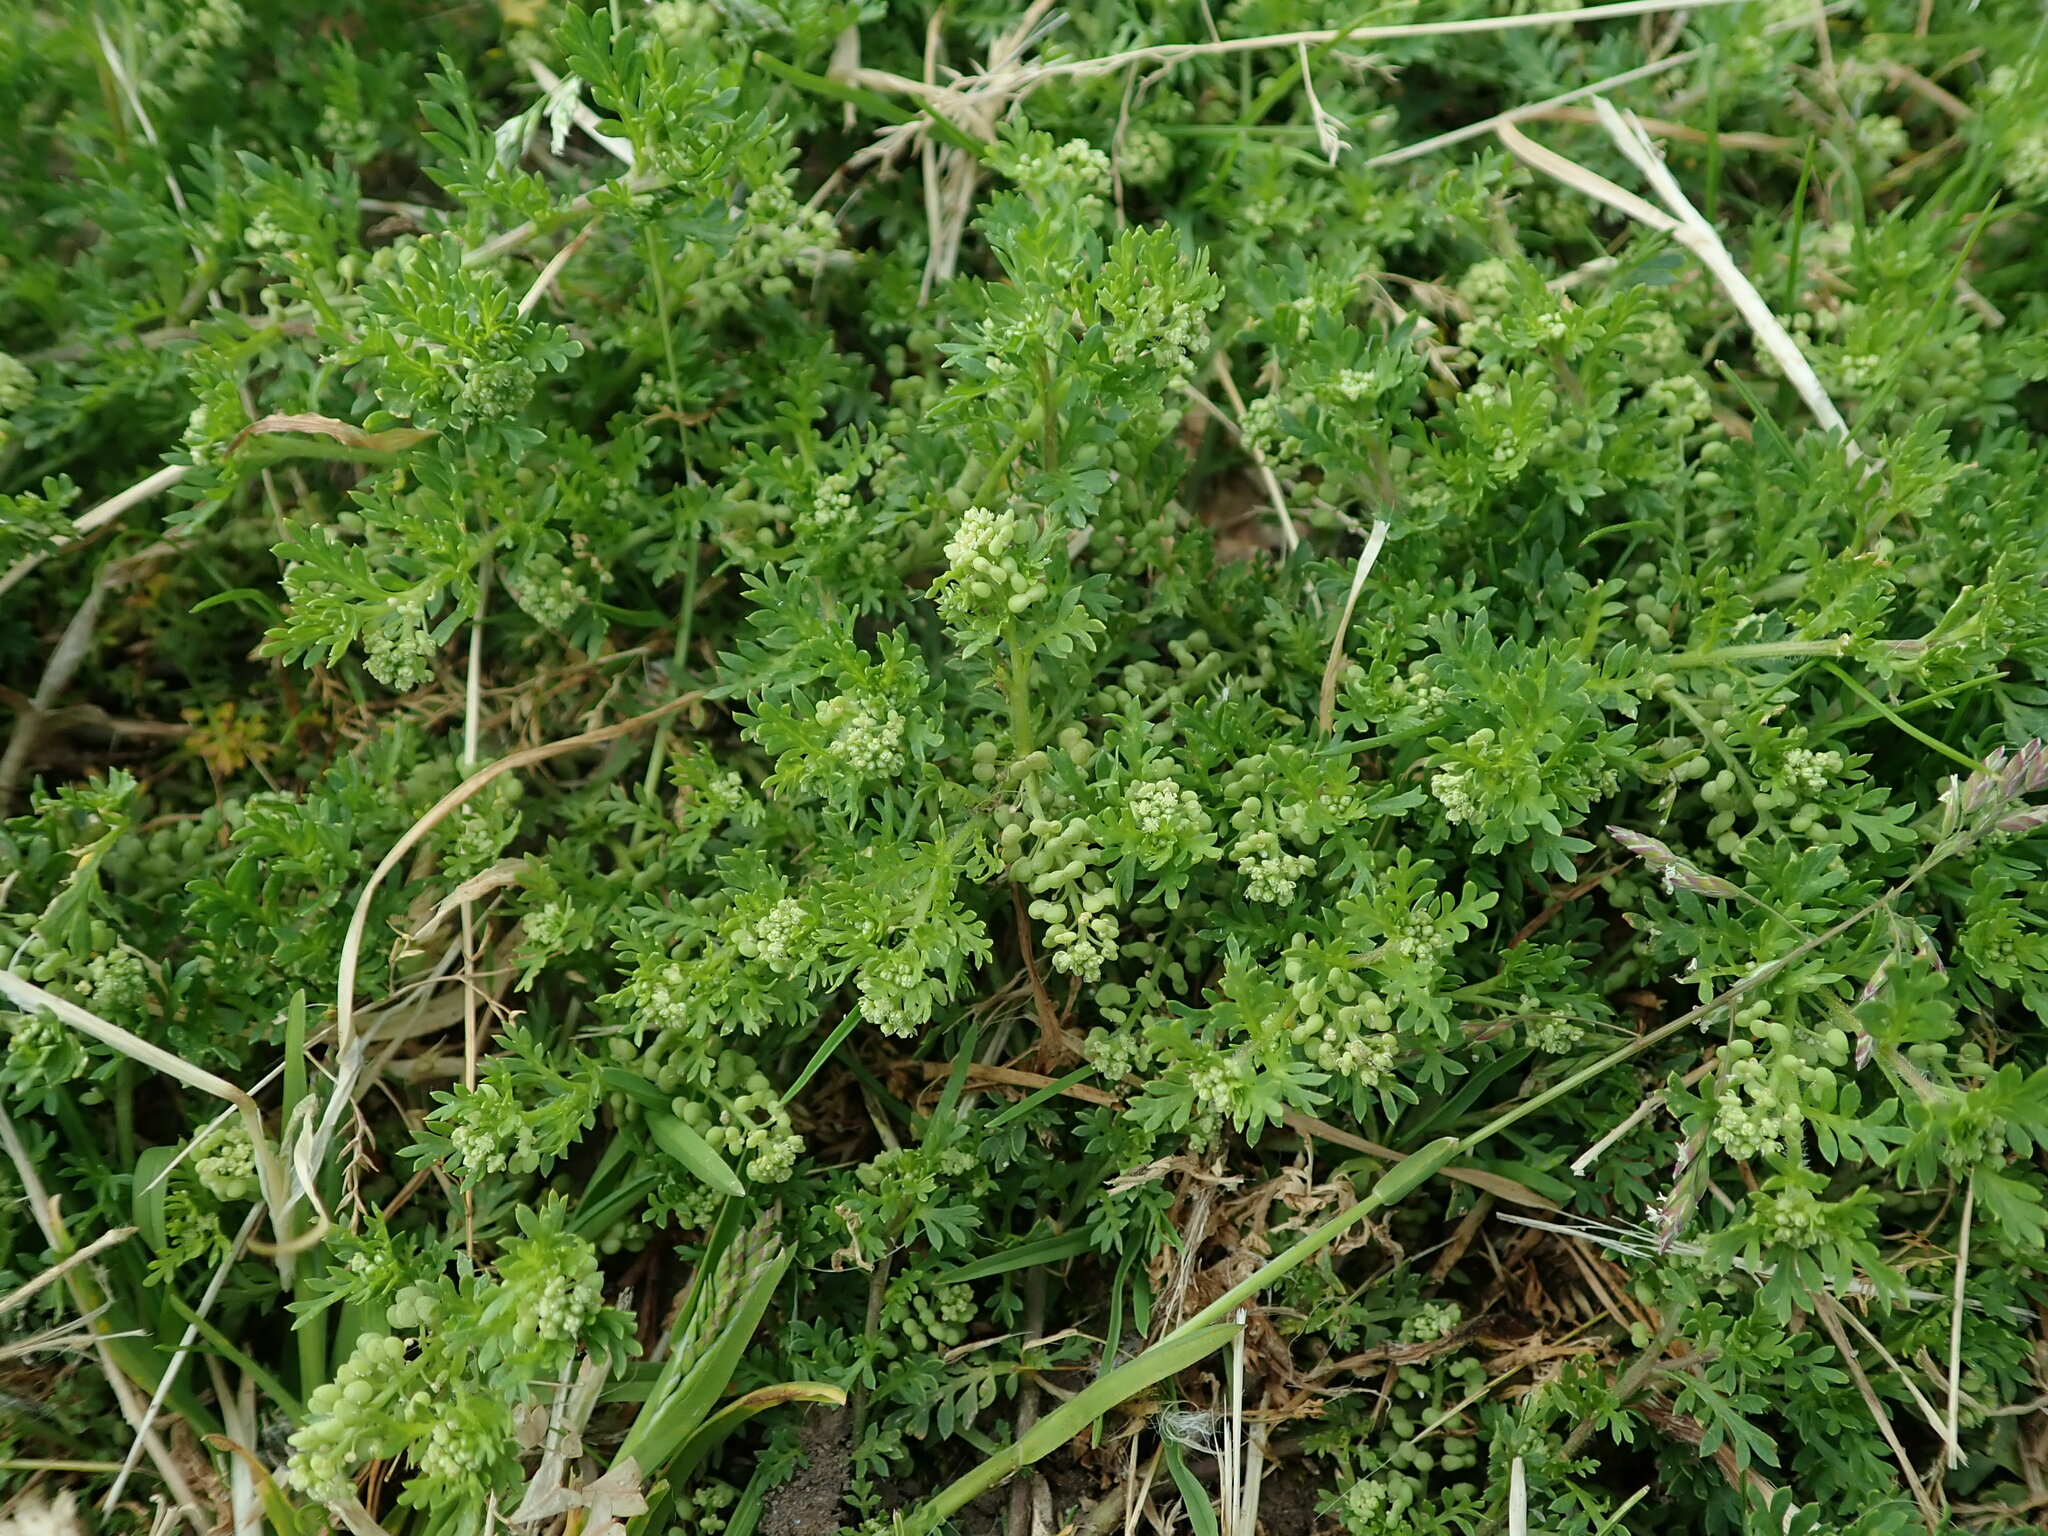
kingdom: Plantae
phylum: Tracheophyta
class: Magnoliopsida
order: Brassicales
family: Brassicaceae
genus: Lepidium
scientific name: Lepidium didymum
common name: Lesser swinecress
